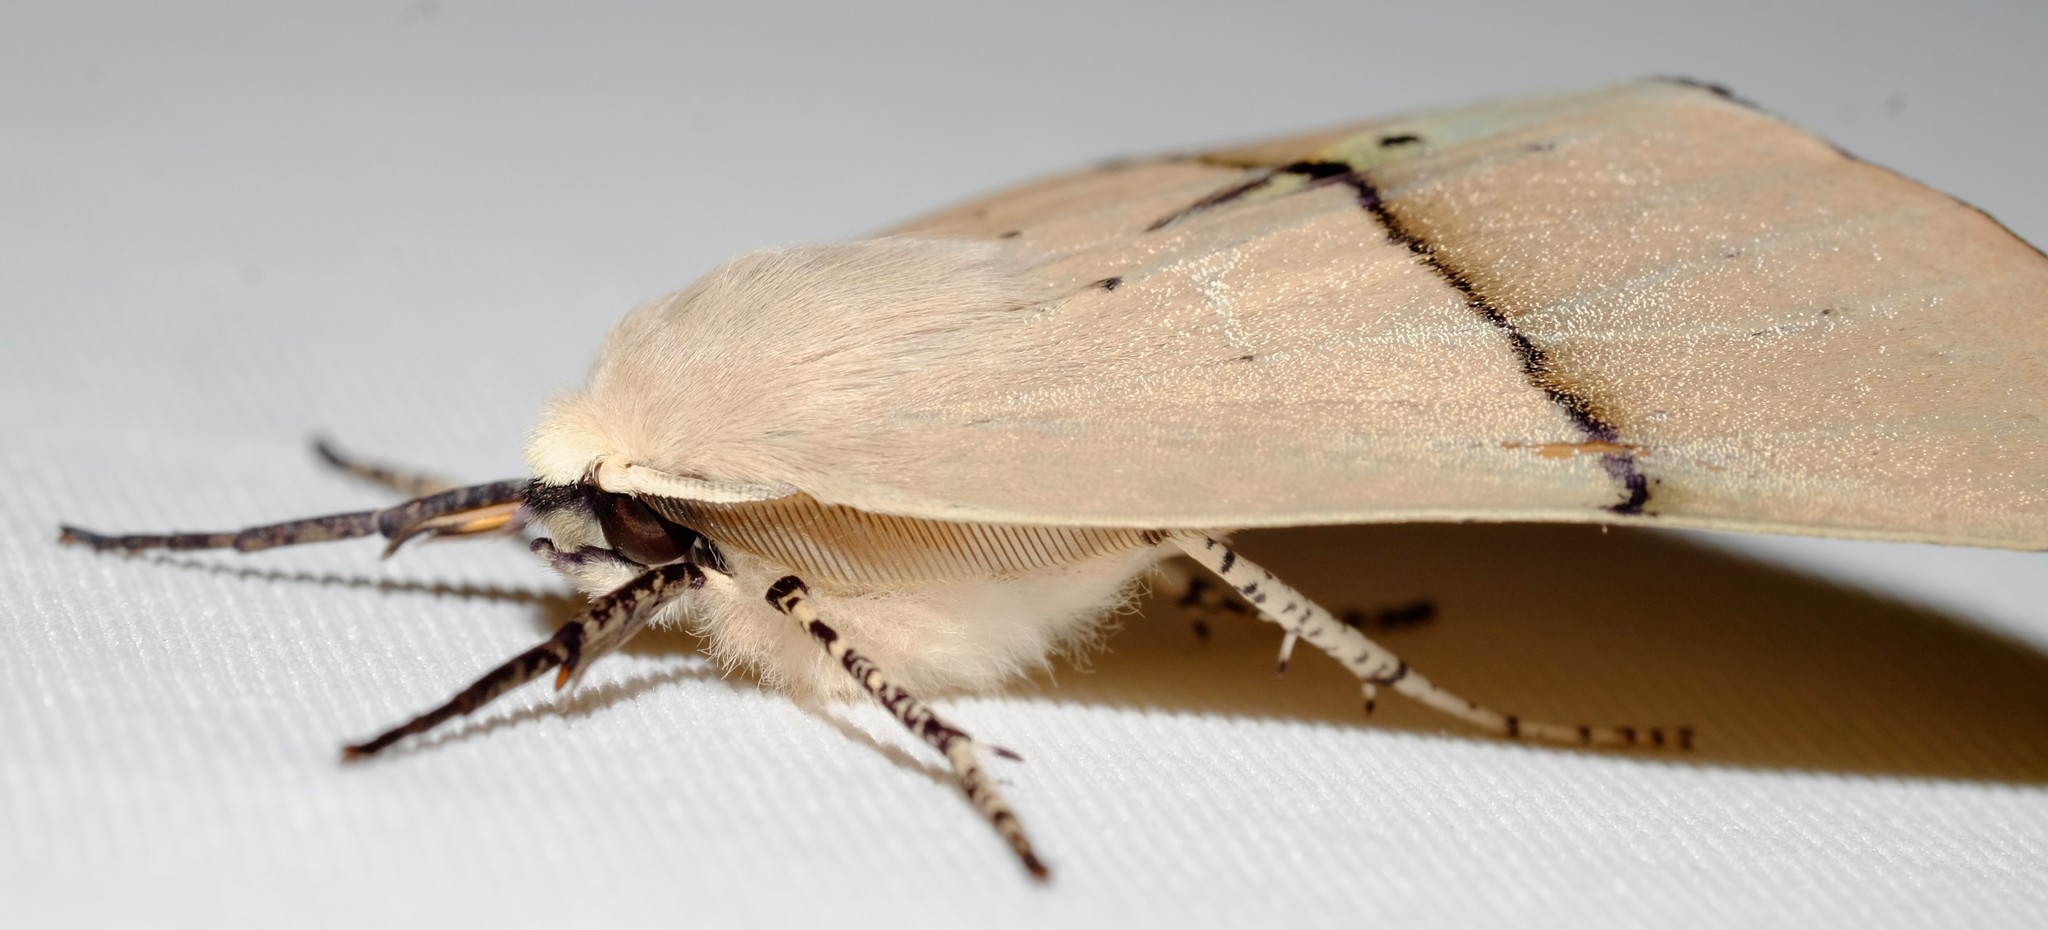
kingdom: Animalia
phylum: Arthropoda
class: Insecta
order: Lepidoptera
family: Geometridae
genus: Gastrophora
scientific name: Gastrophora henricaria
